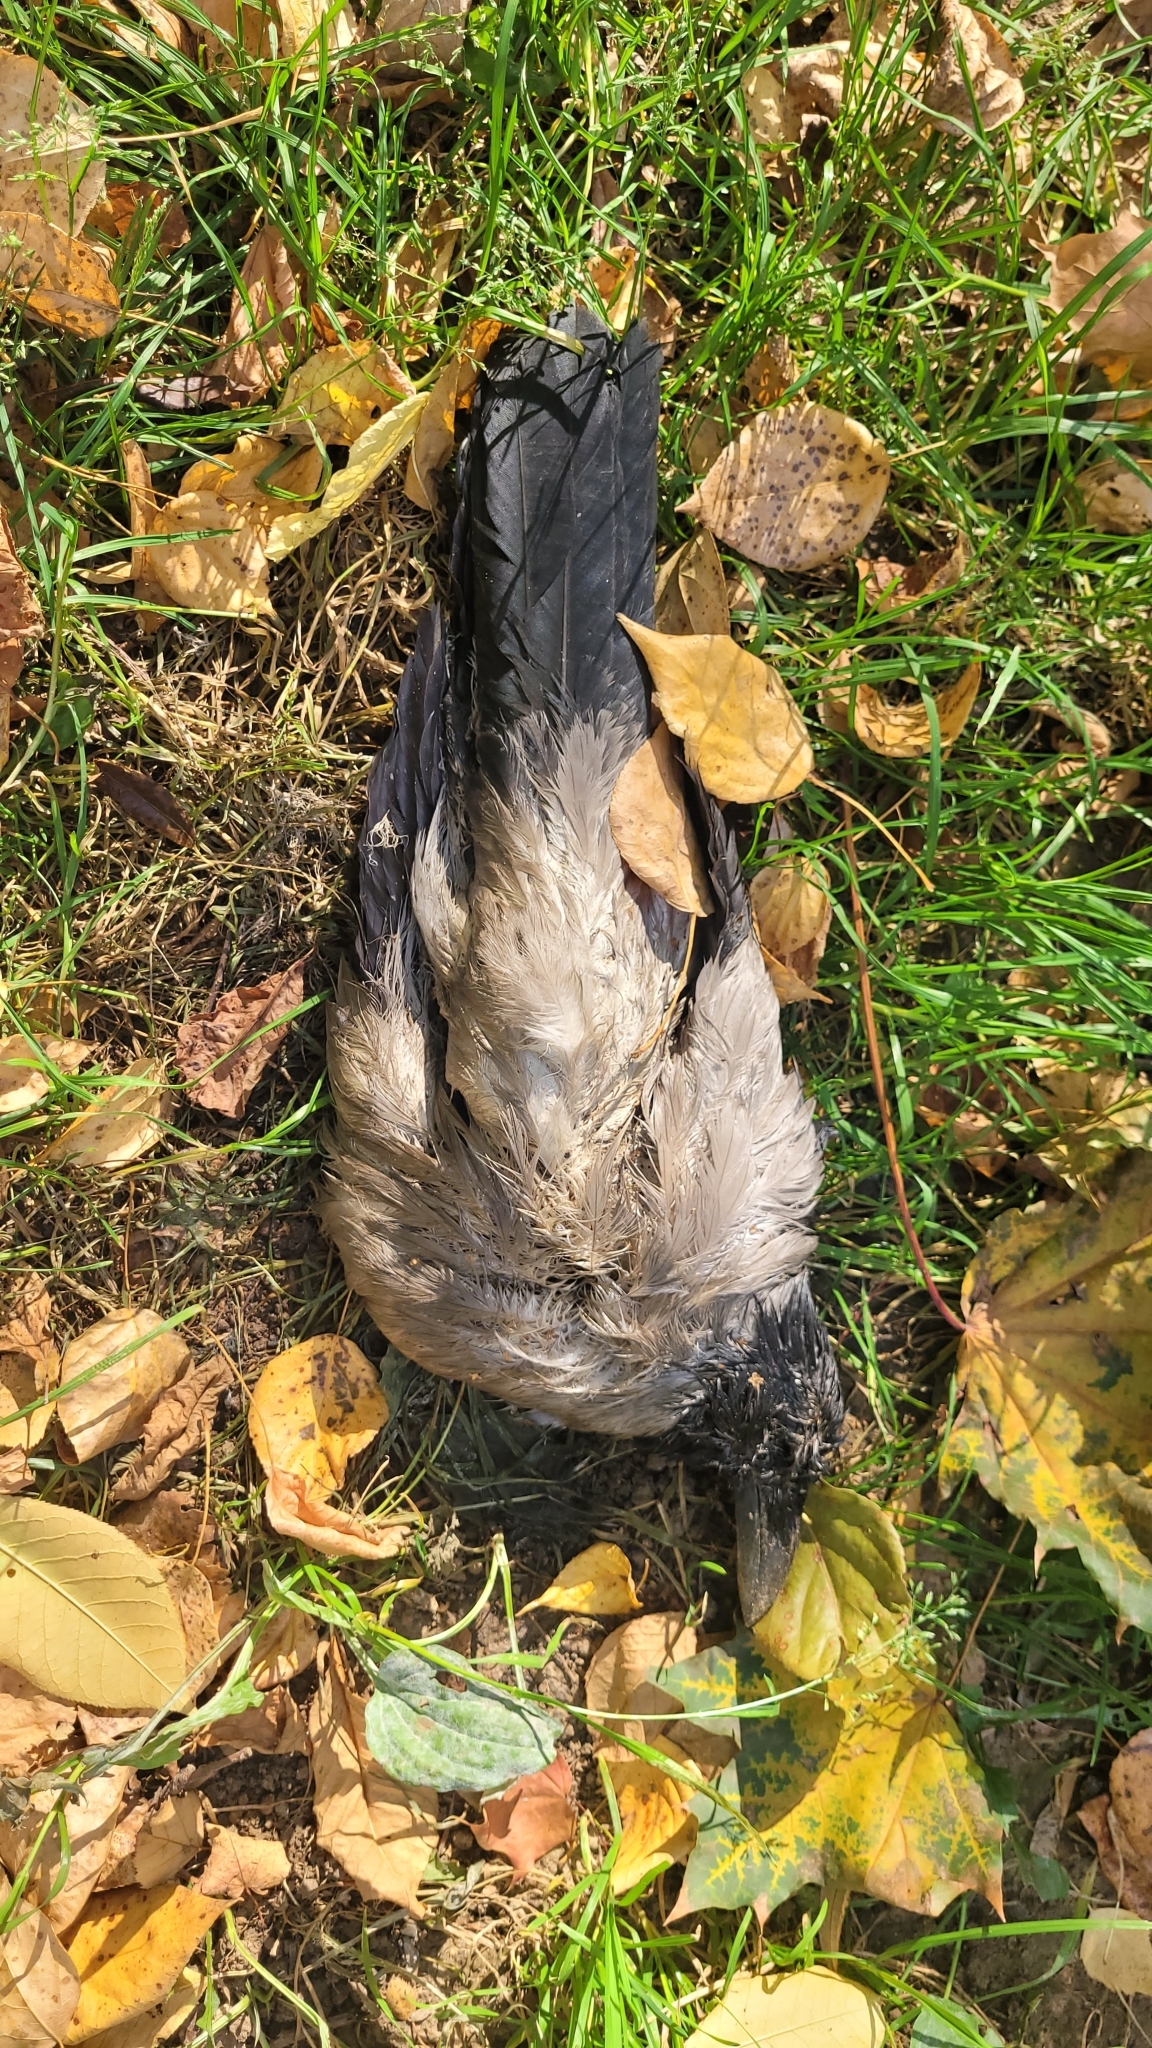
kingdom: Animalia
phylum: Chordata
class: Aves
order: Passeriformes
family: Corvidae
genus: Corvus
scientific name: Corvus cornix
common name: Hooded crow
